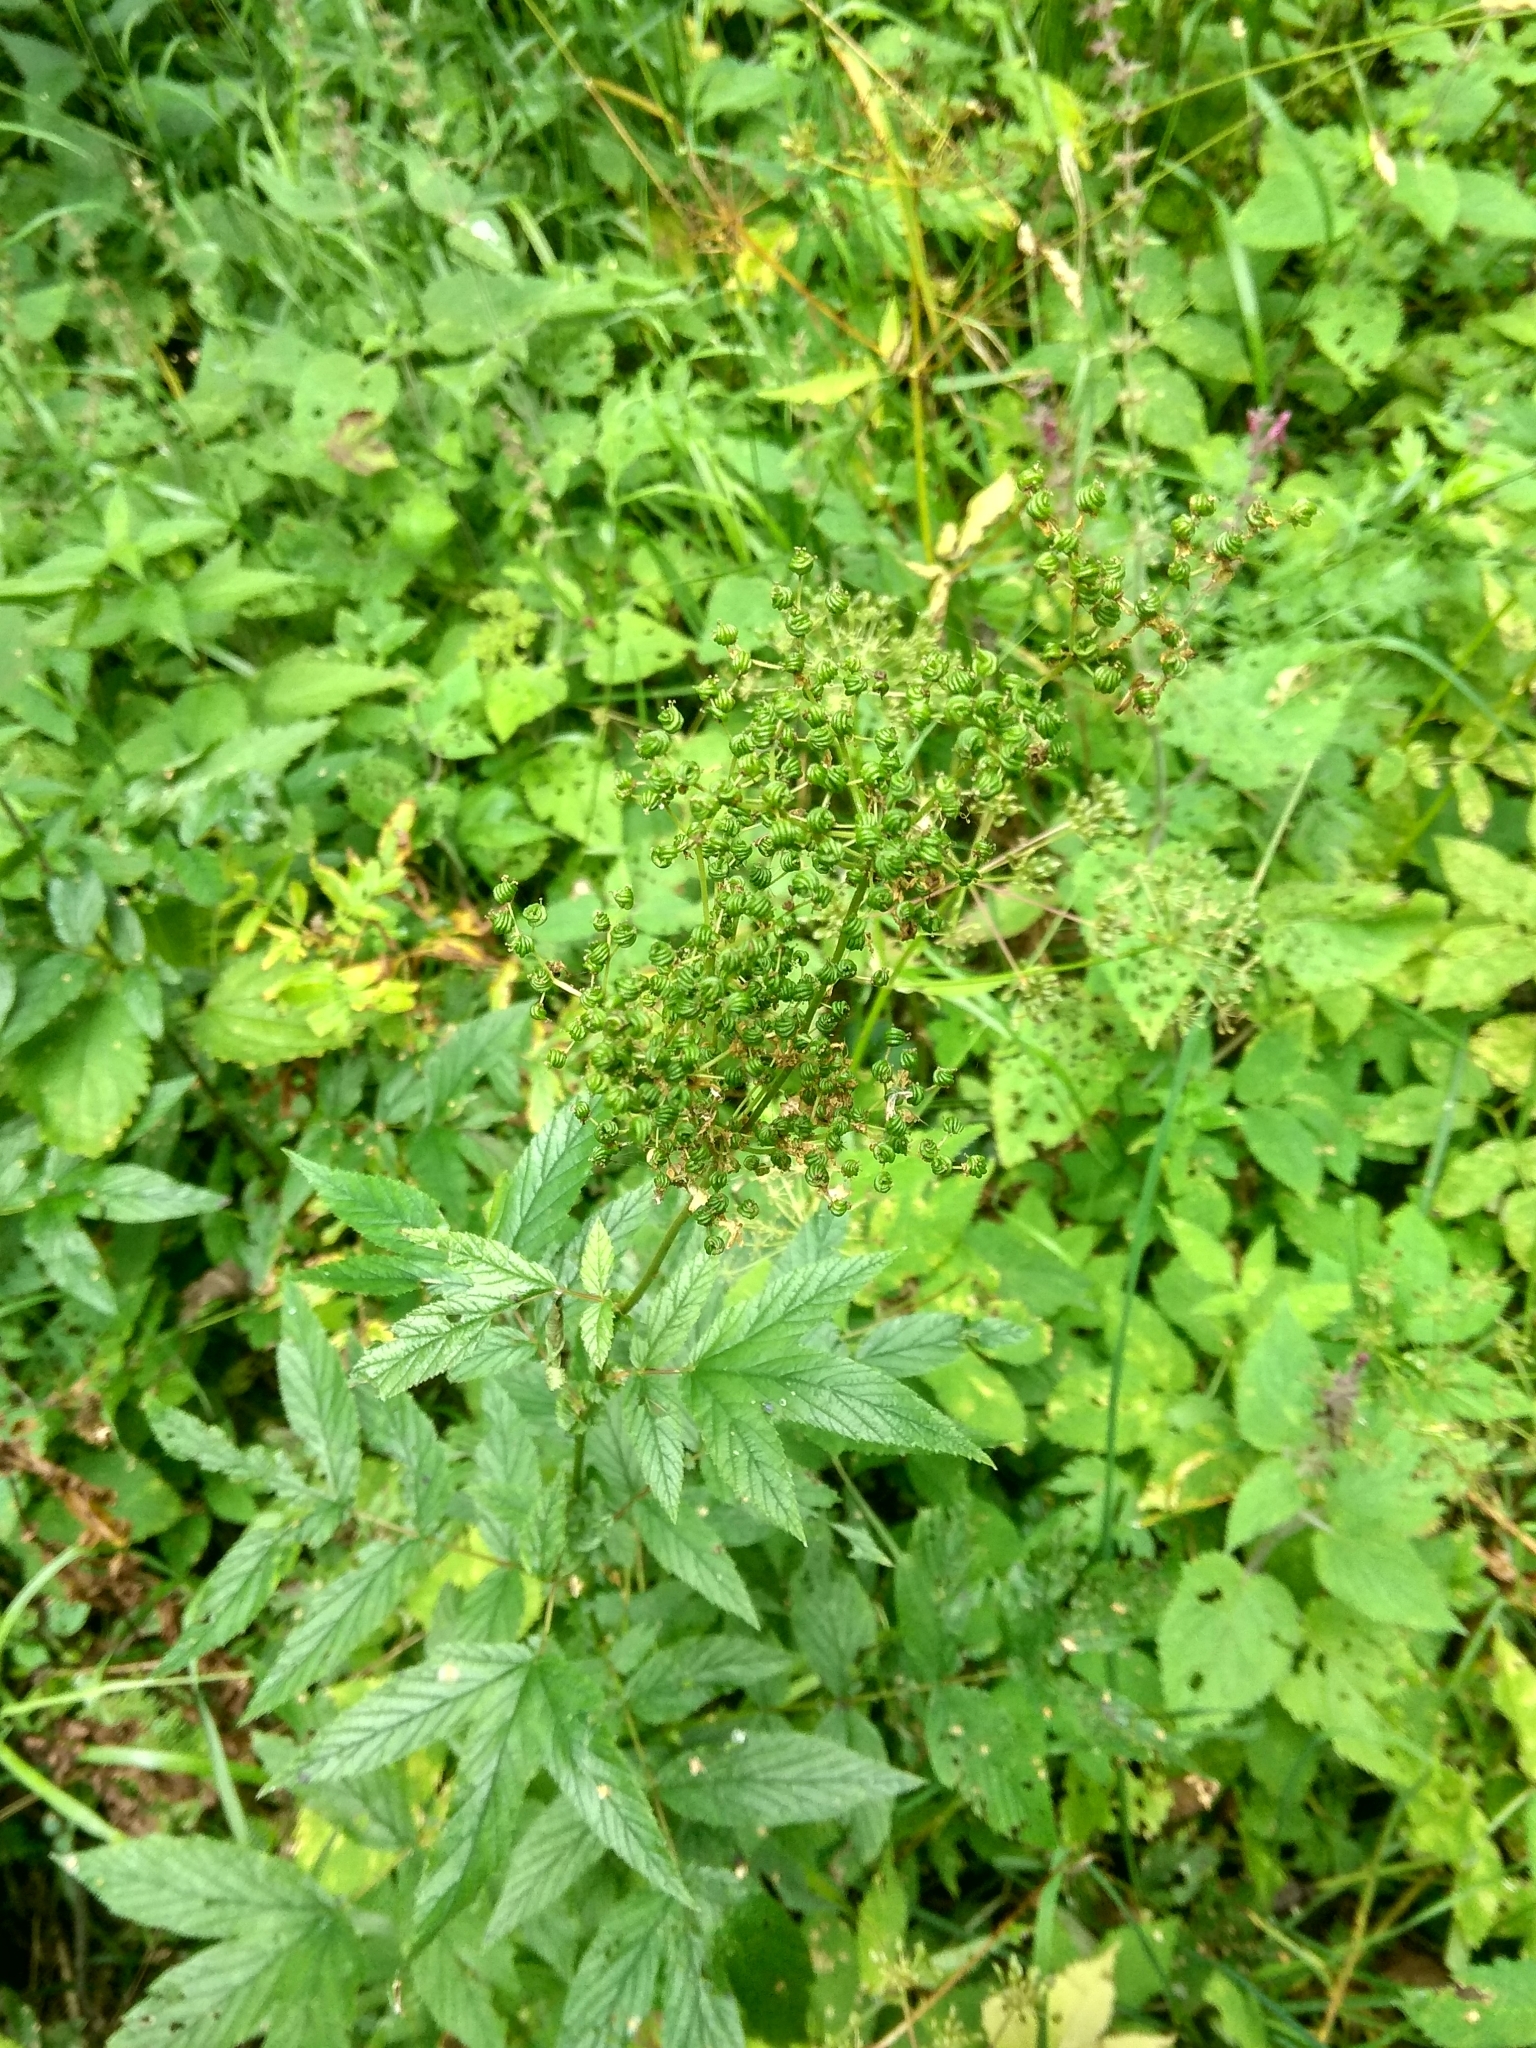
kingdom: Plantae
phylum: Tracheophyta
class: Magnoliopsida
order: Rosales
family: Rosaceae
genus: Filipendula
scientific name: Filipendula ulmaria
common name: Meadowsweet
